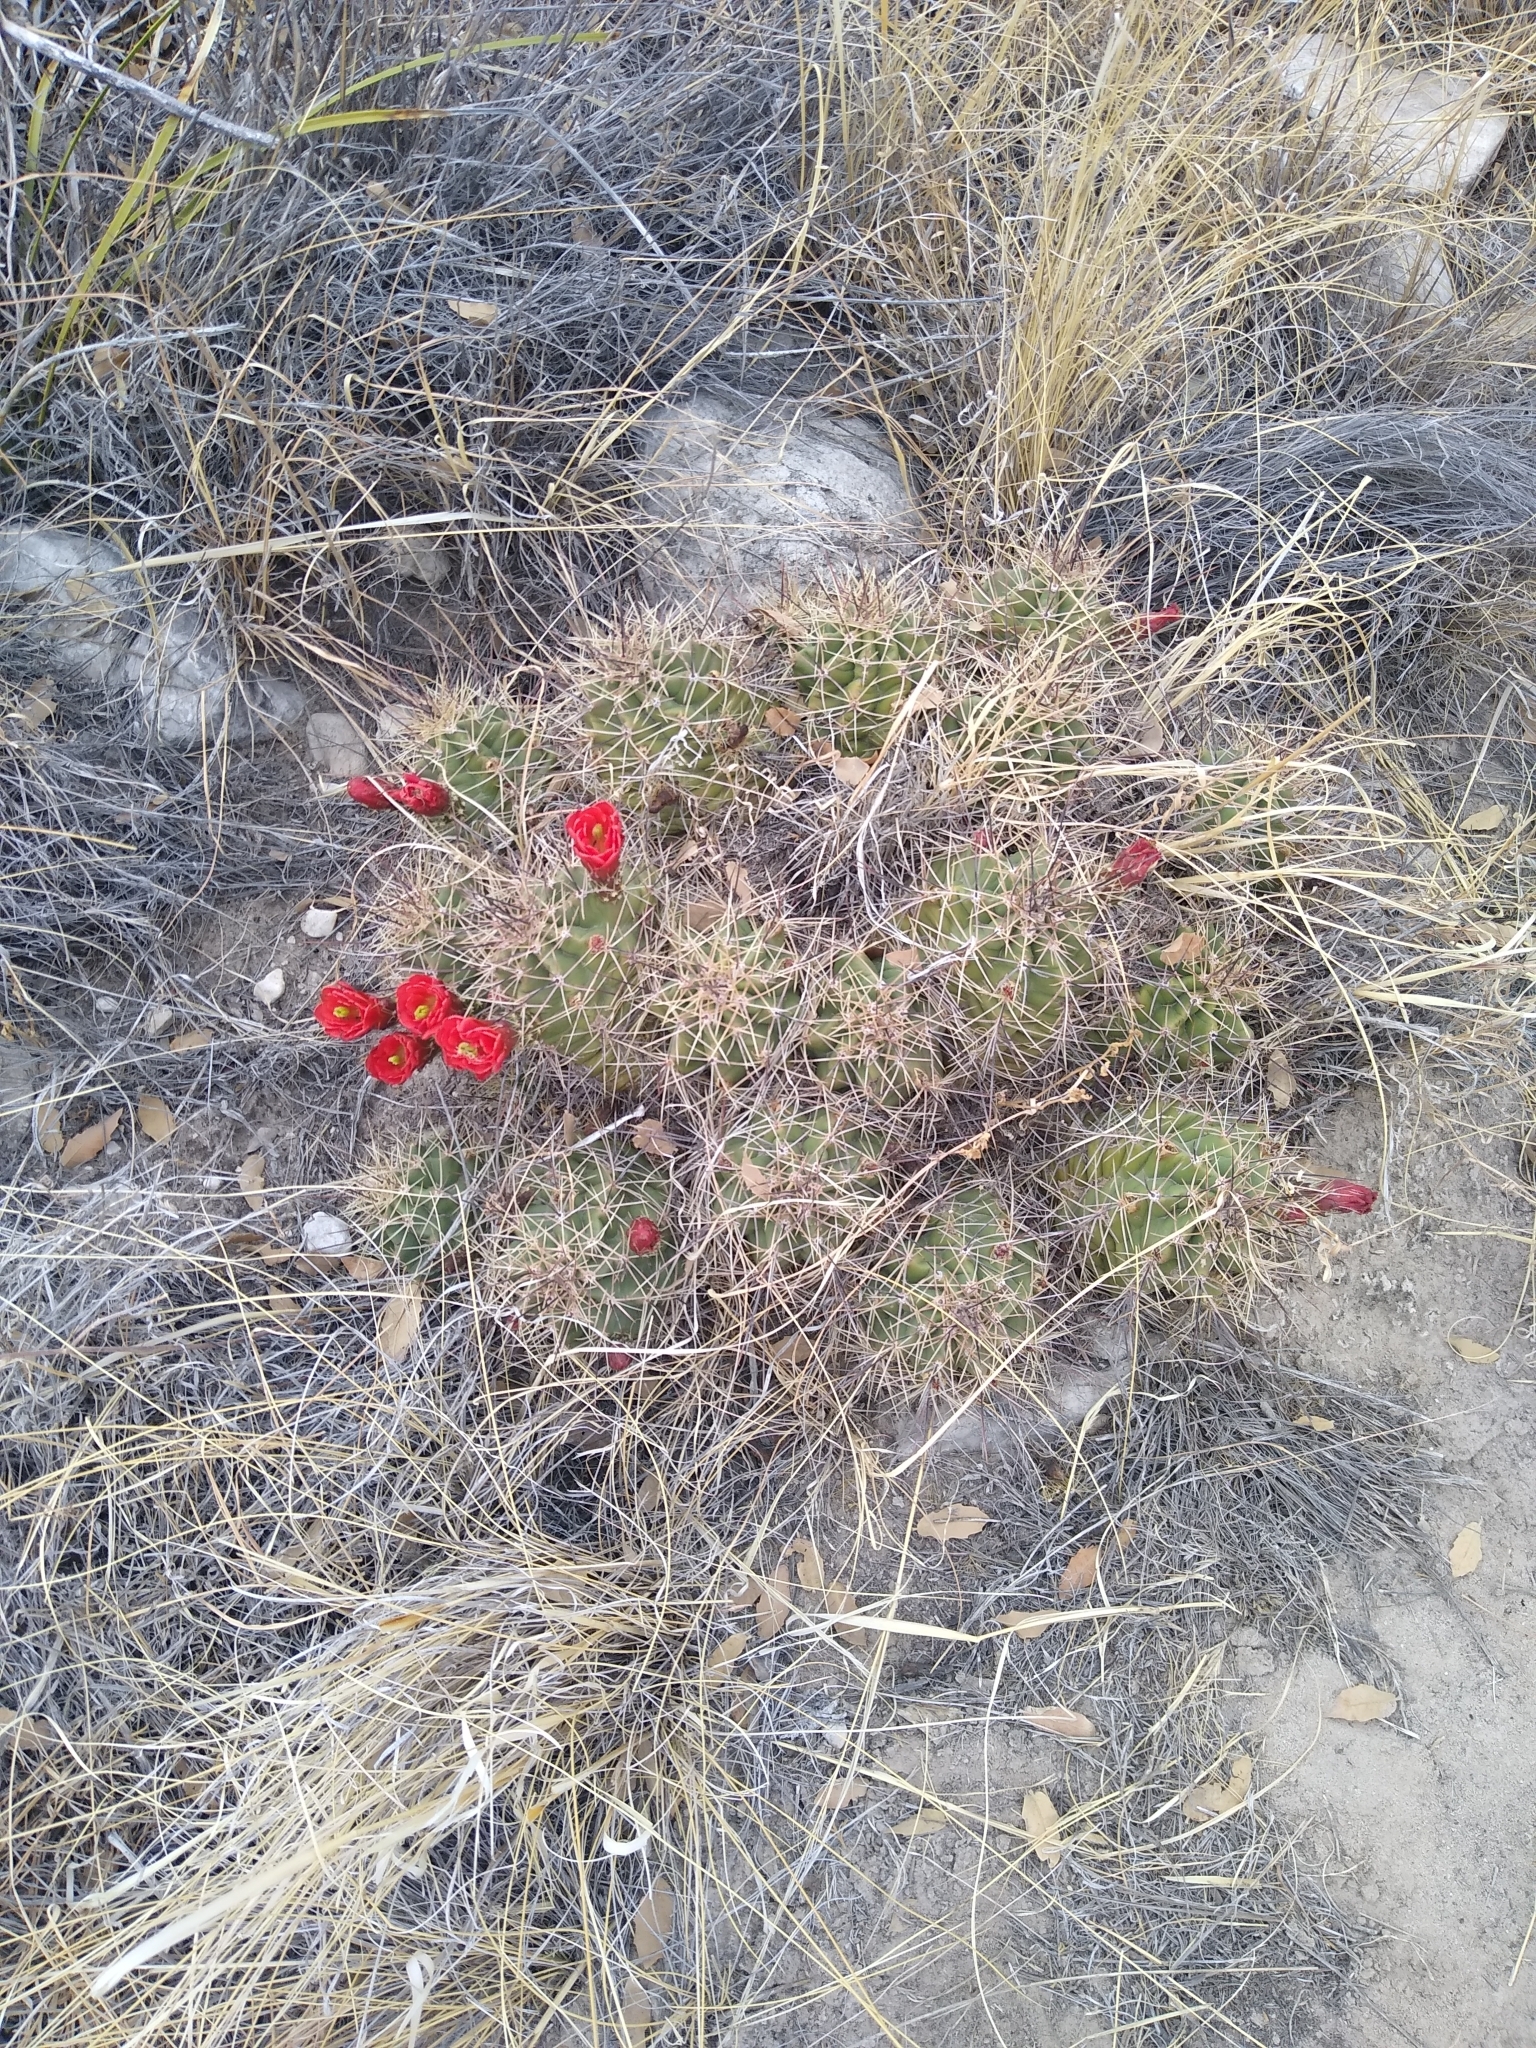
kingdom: Plantae
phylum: Tracheophyta
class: Magnoliopsida
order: Caryophyllales
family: Cactaceae
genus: Echinocereus
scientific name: Echinocereus coccineus
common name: Scarlet hedgehog cactus
